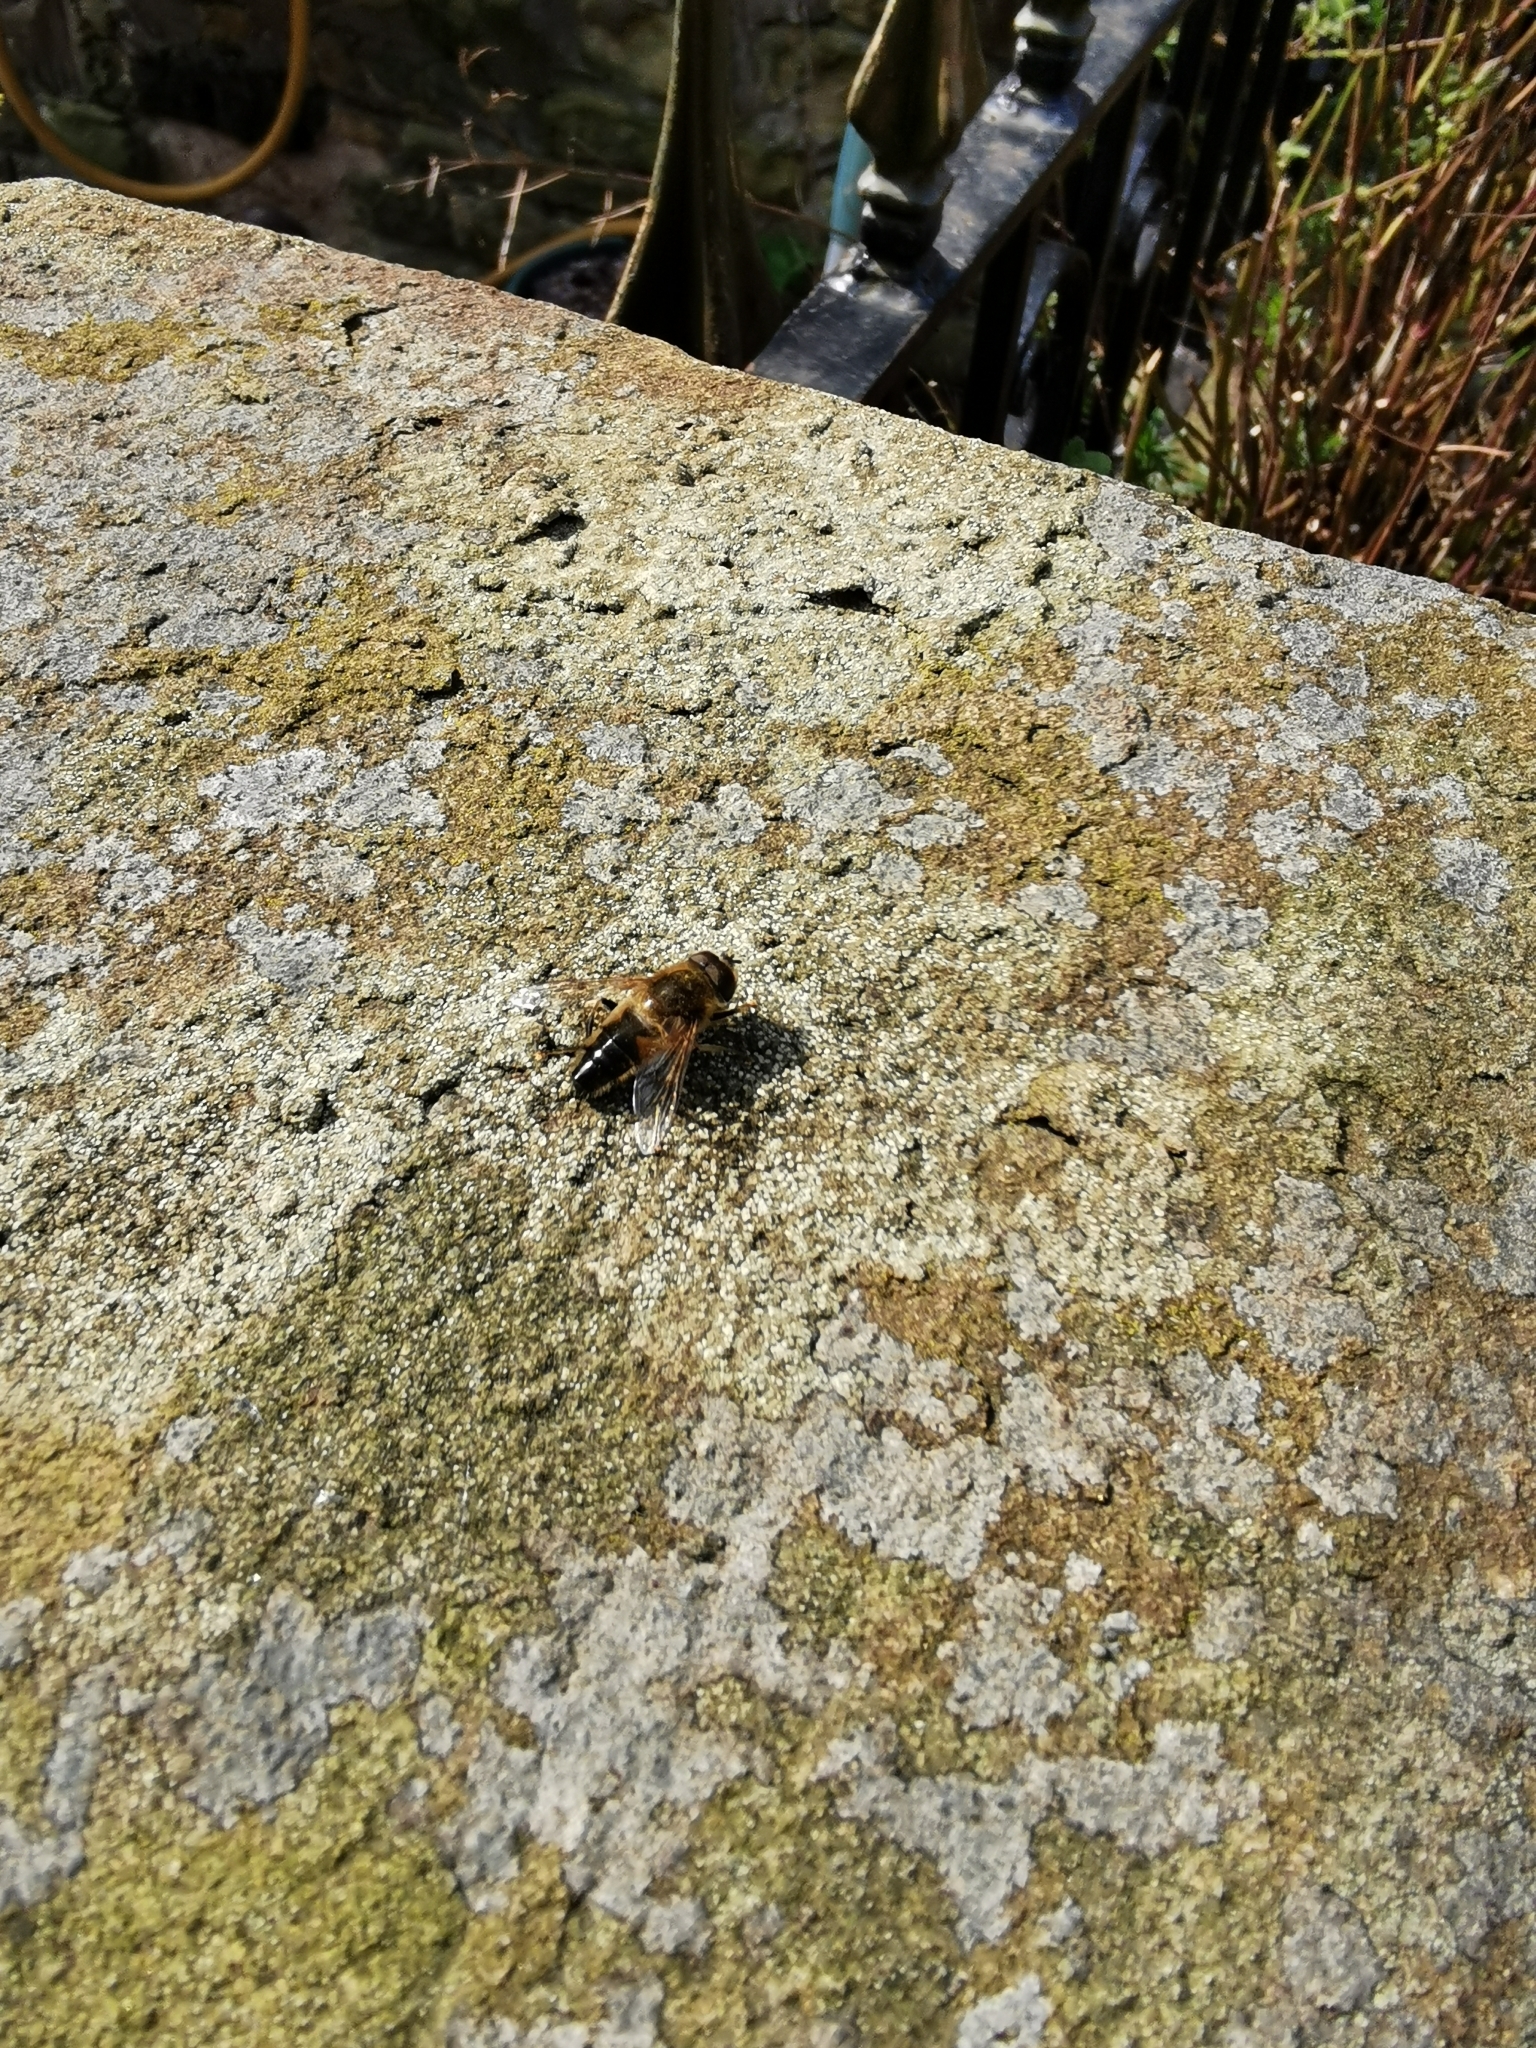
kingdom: Animalia
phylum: Arthropoda
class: Insecta
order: Diptera
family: Syrphidae
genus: Eristalis
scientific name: Eristalis pertinax
